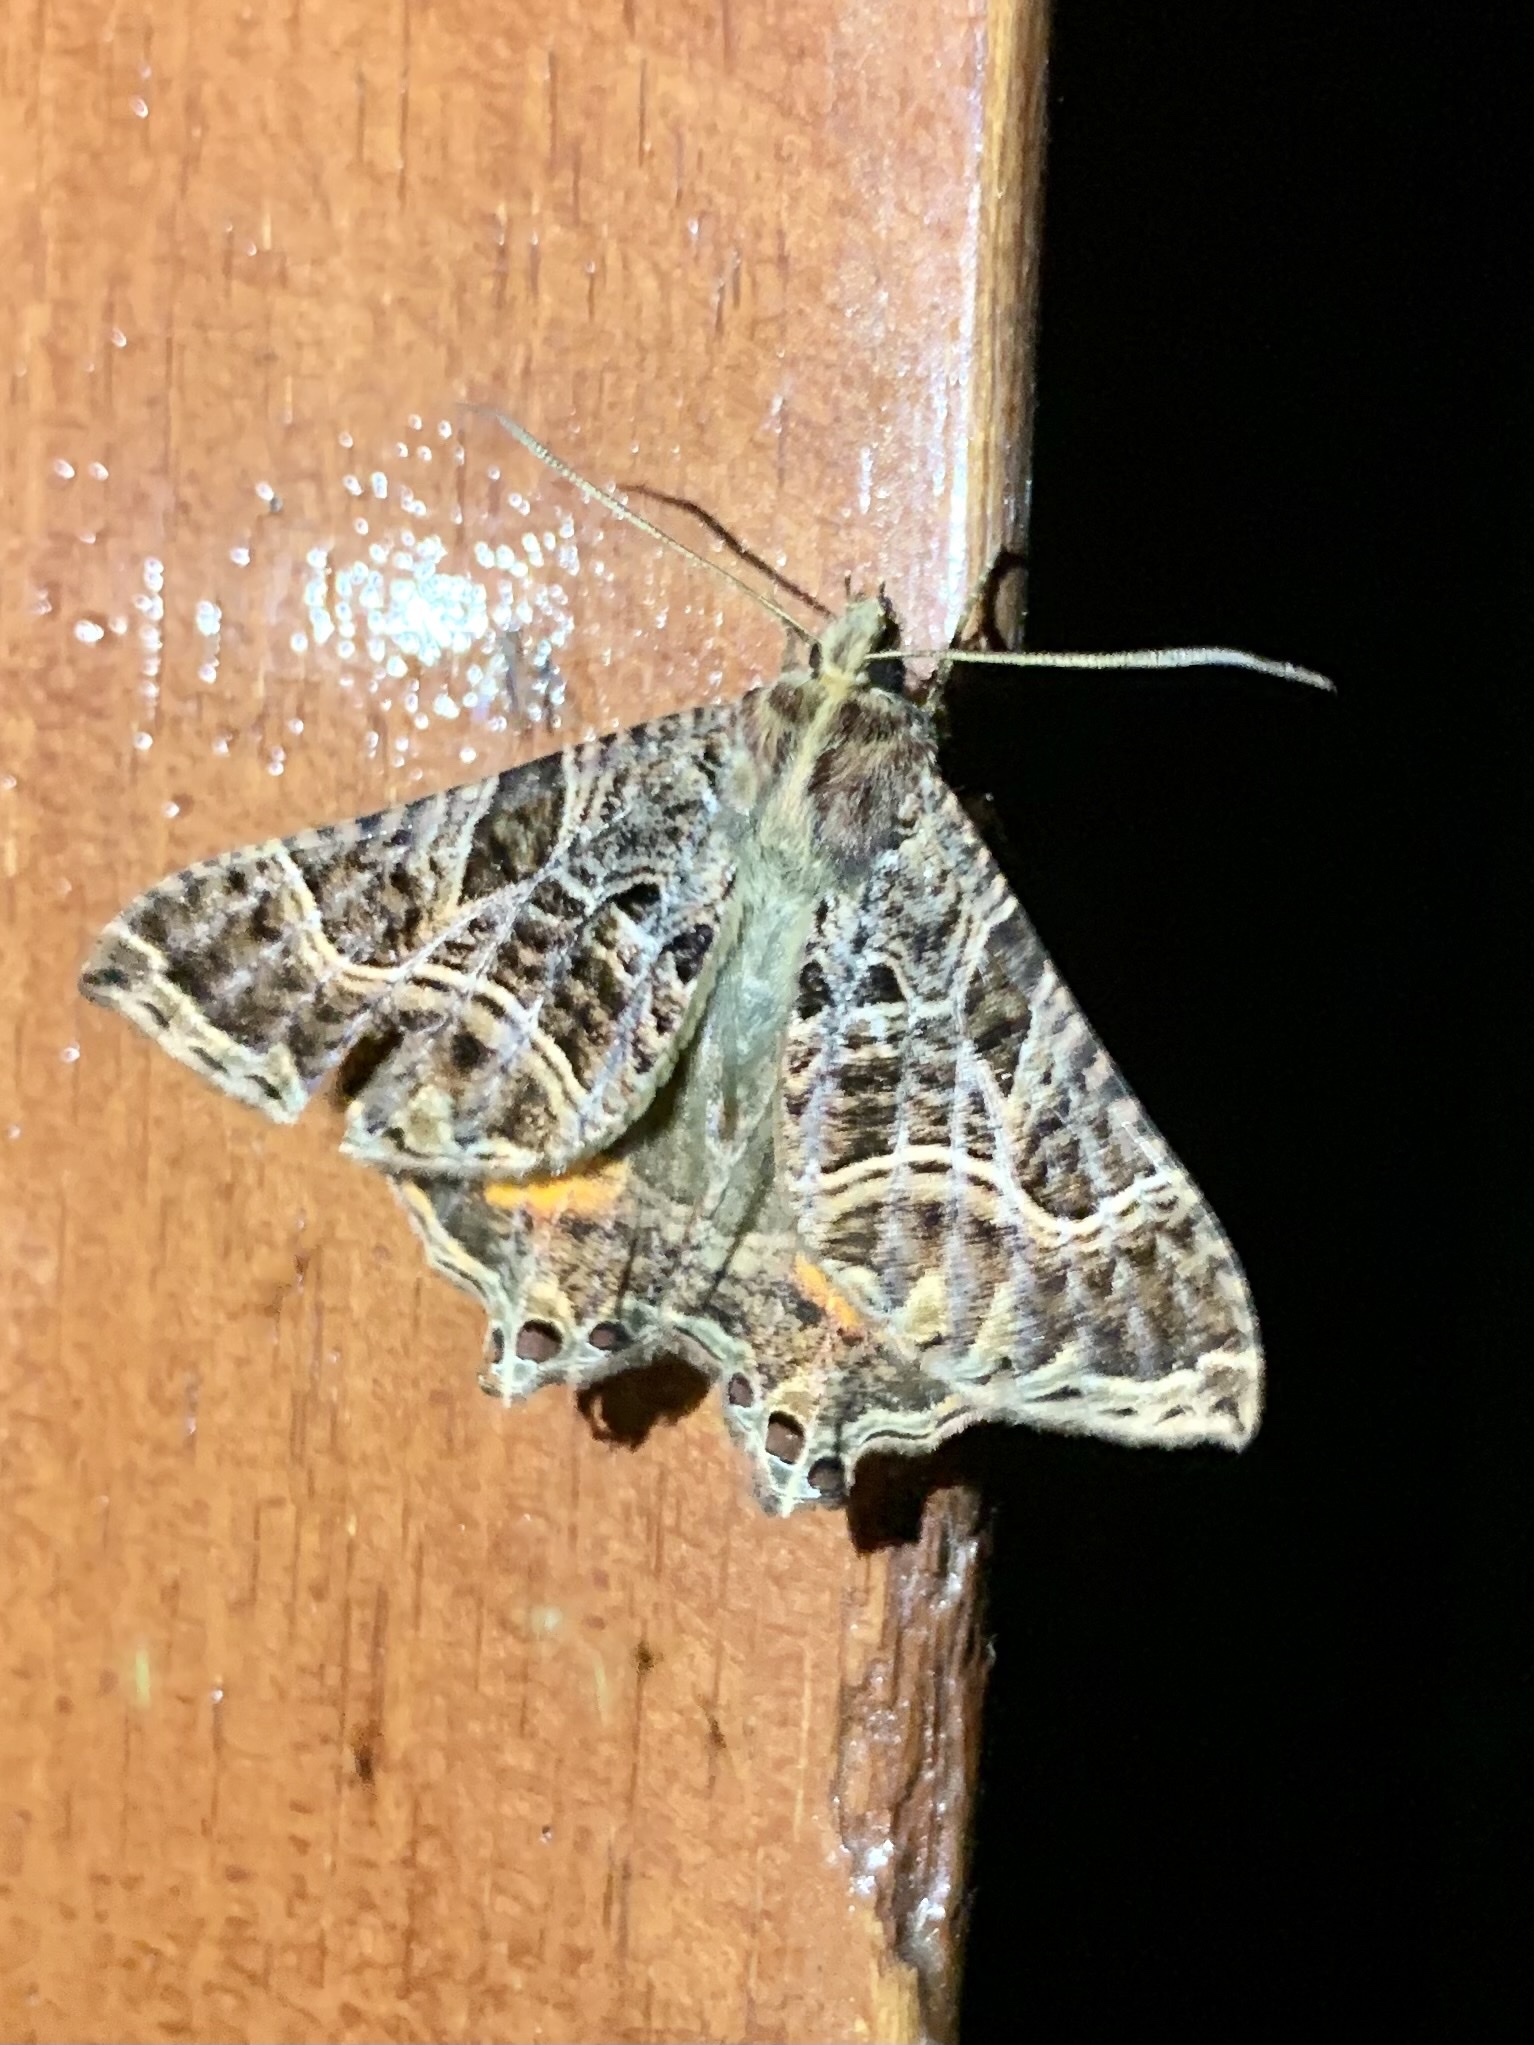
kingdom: Animalia
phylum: Arthropoda
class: Insecta
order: Lepidoptera
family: Sematuridae
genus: Coronidia
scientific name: Coronidia
